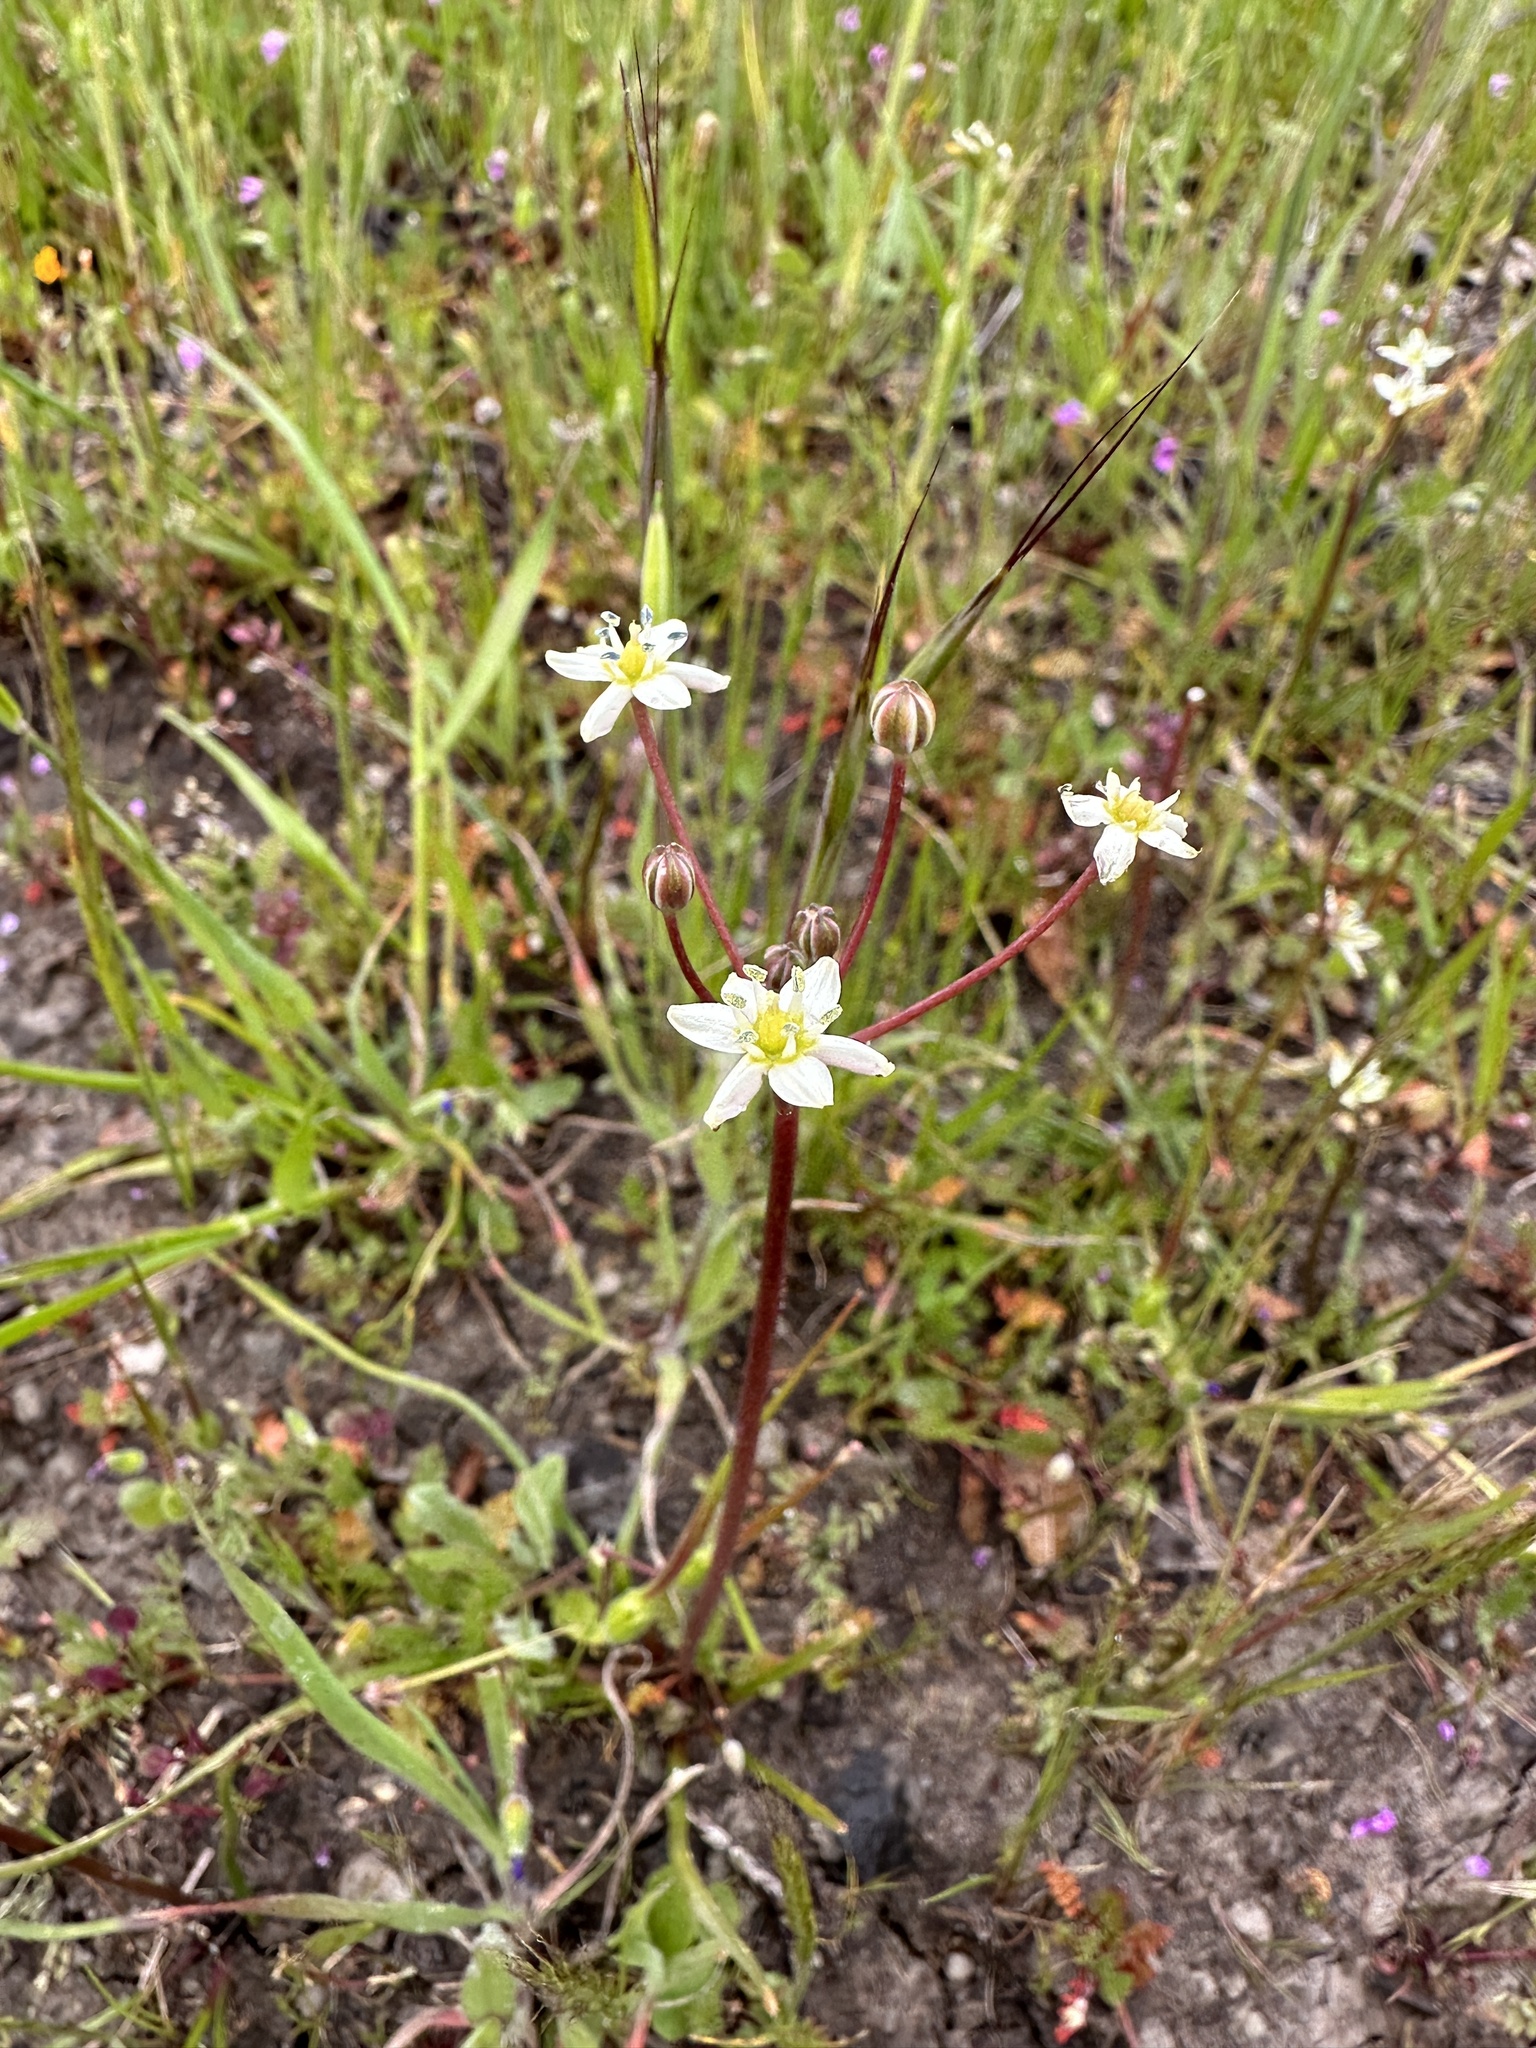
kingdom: Plantae
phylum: Tracheophyta
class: Liliopsida
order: Asparagales
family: Asparagaceae
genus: Muilla
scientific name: Muilla maritima
